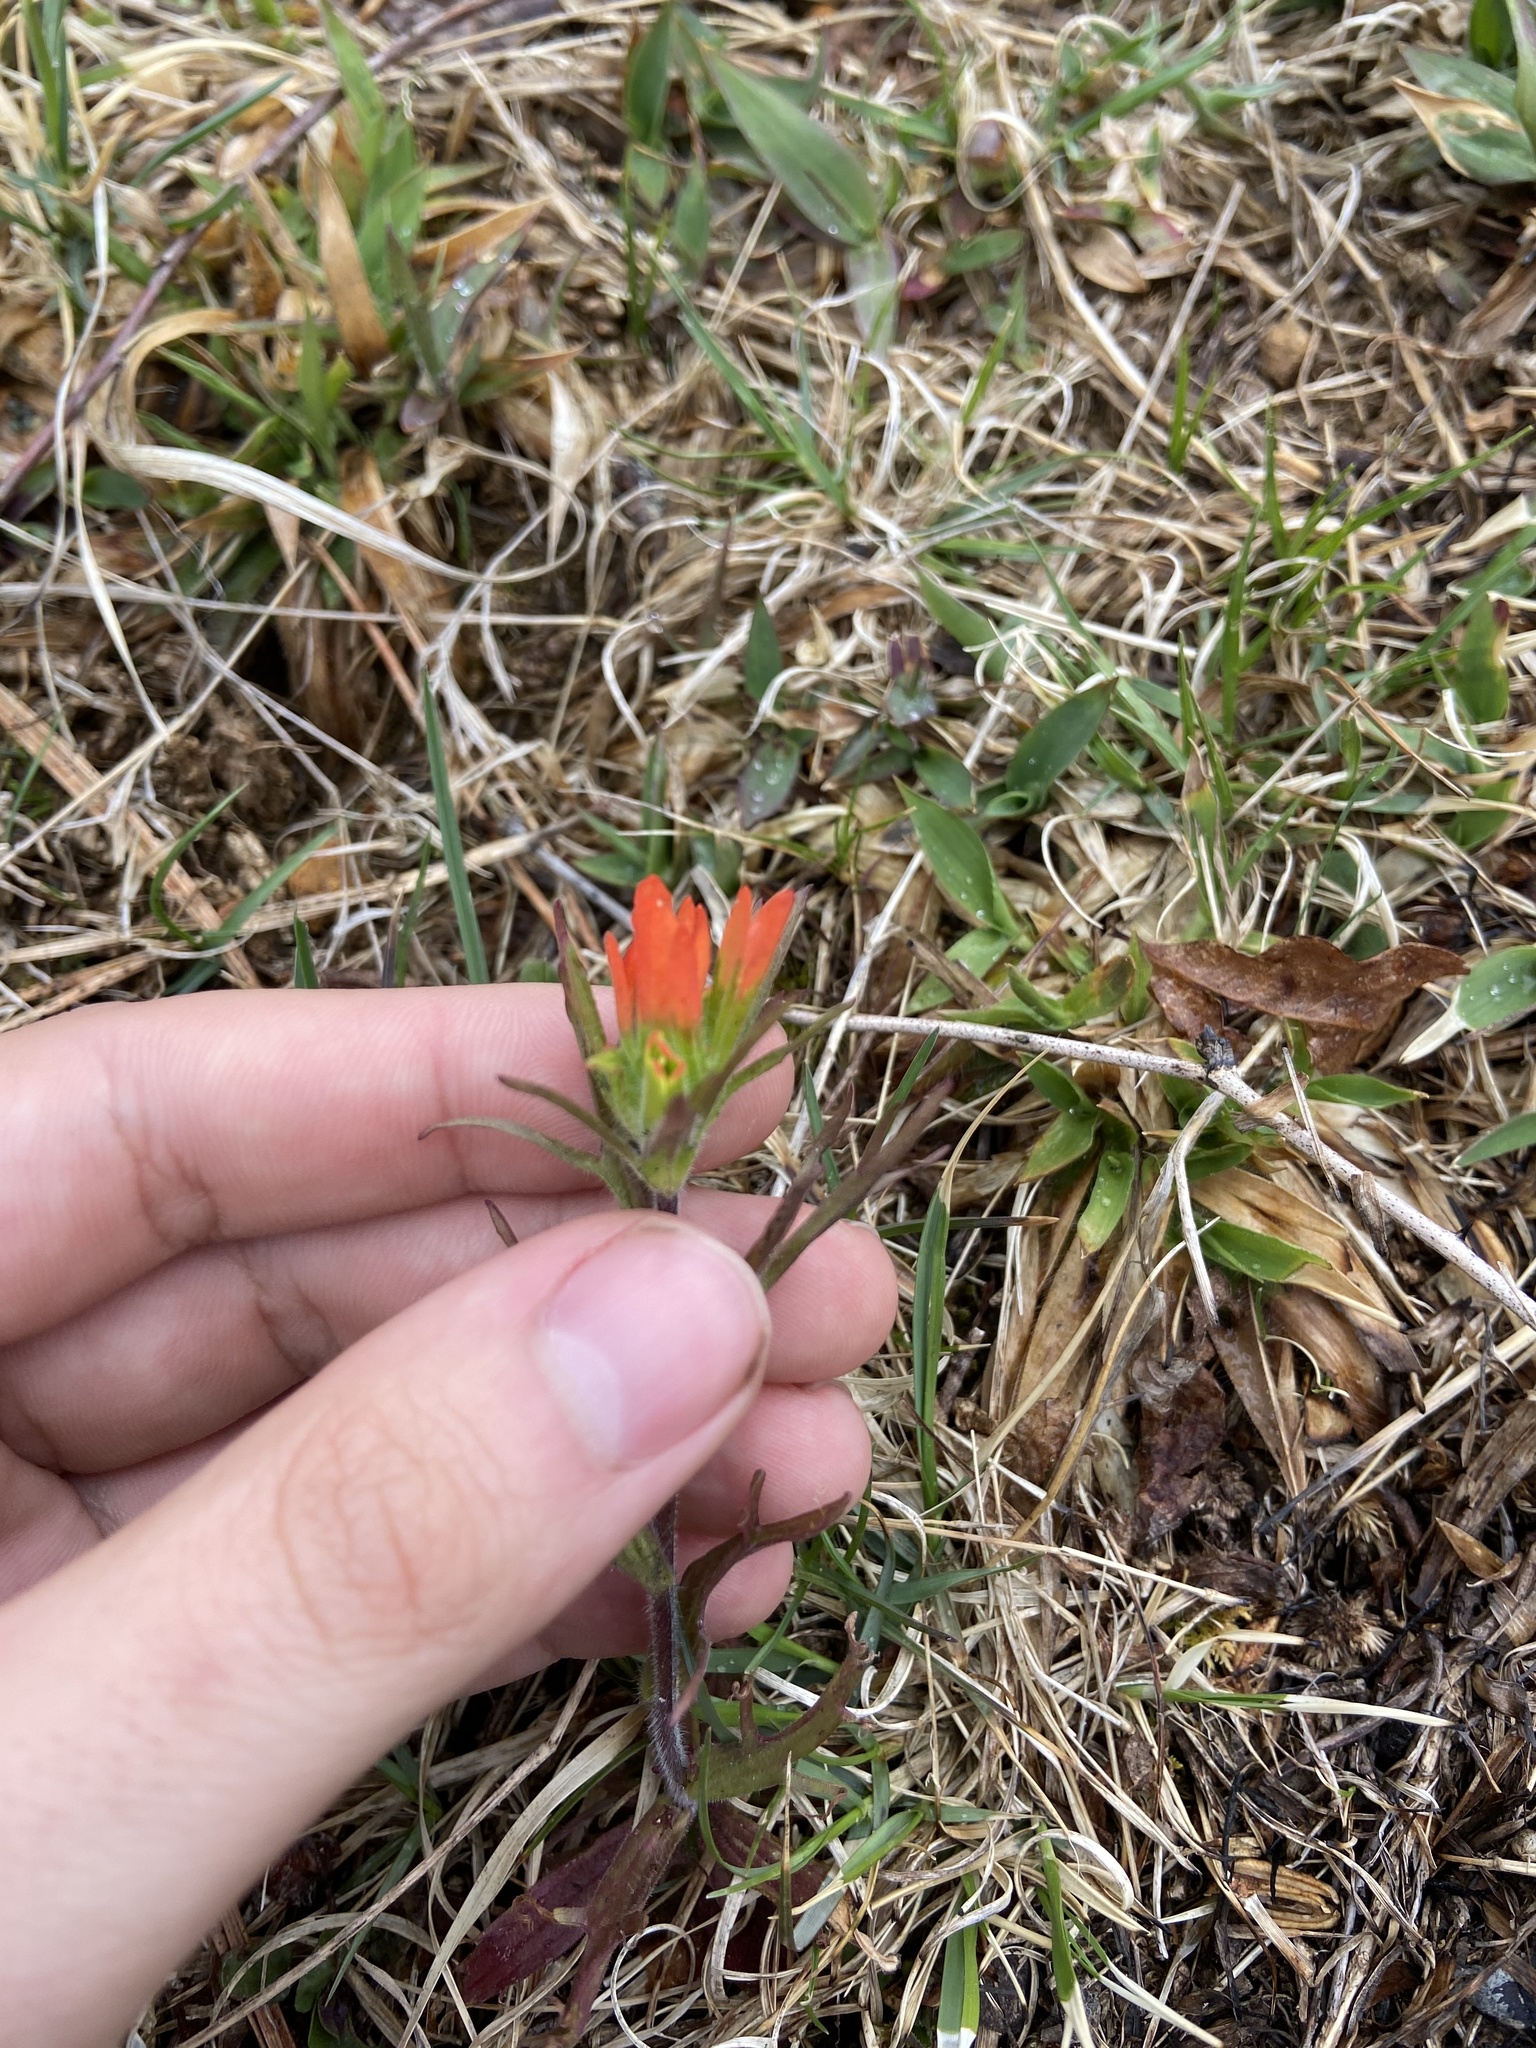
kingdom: Plantae
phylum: Tracheophyta
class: Magnoliopsida
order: Lamiales
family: Orobanchaceae
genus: Castilleja
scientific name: Castilleja coccinea
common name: Scarlet paintbrush
